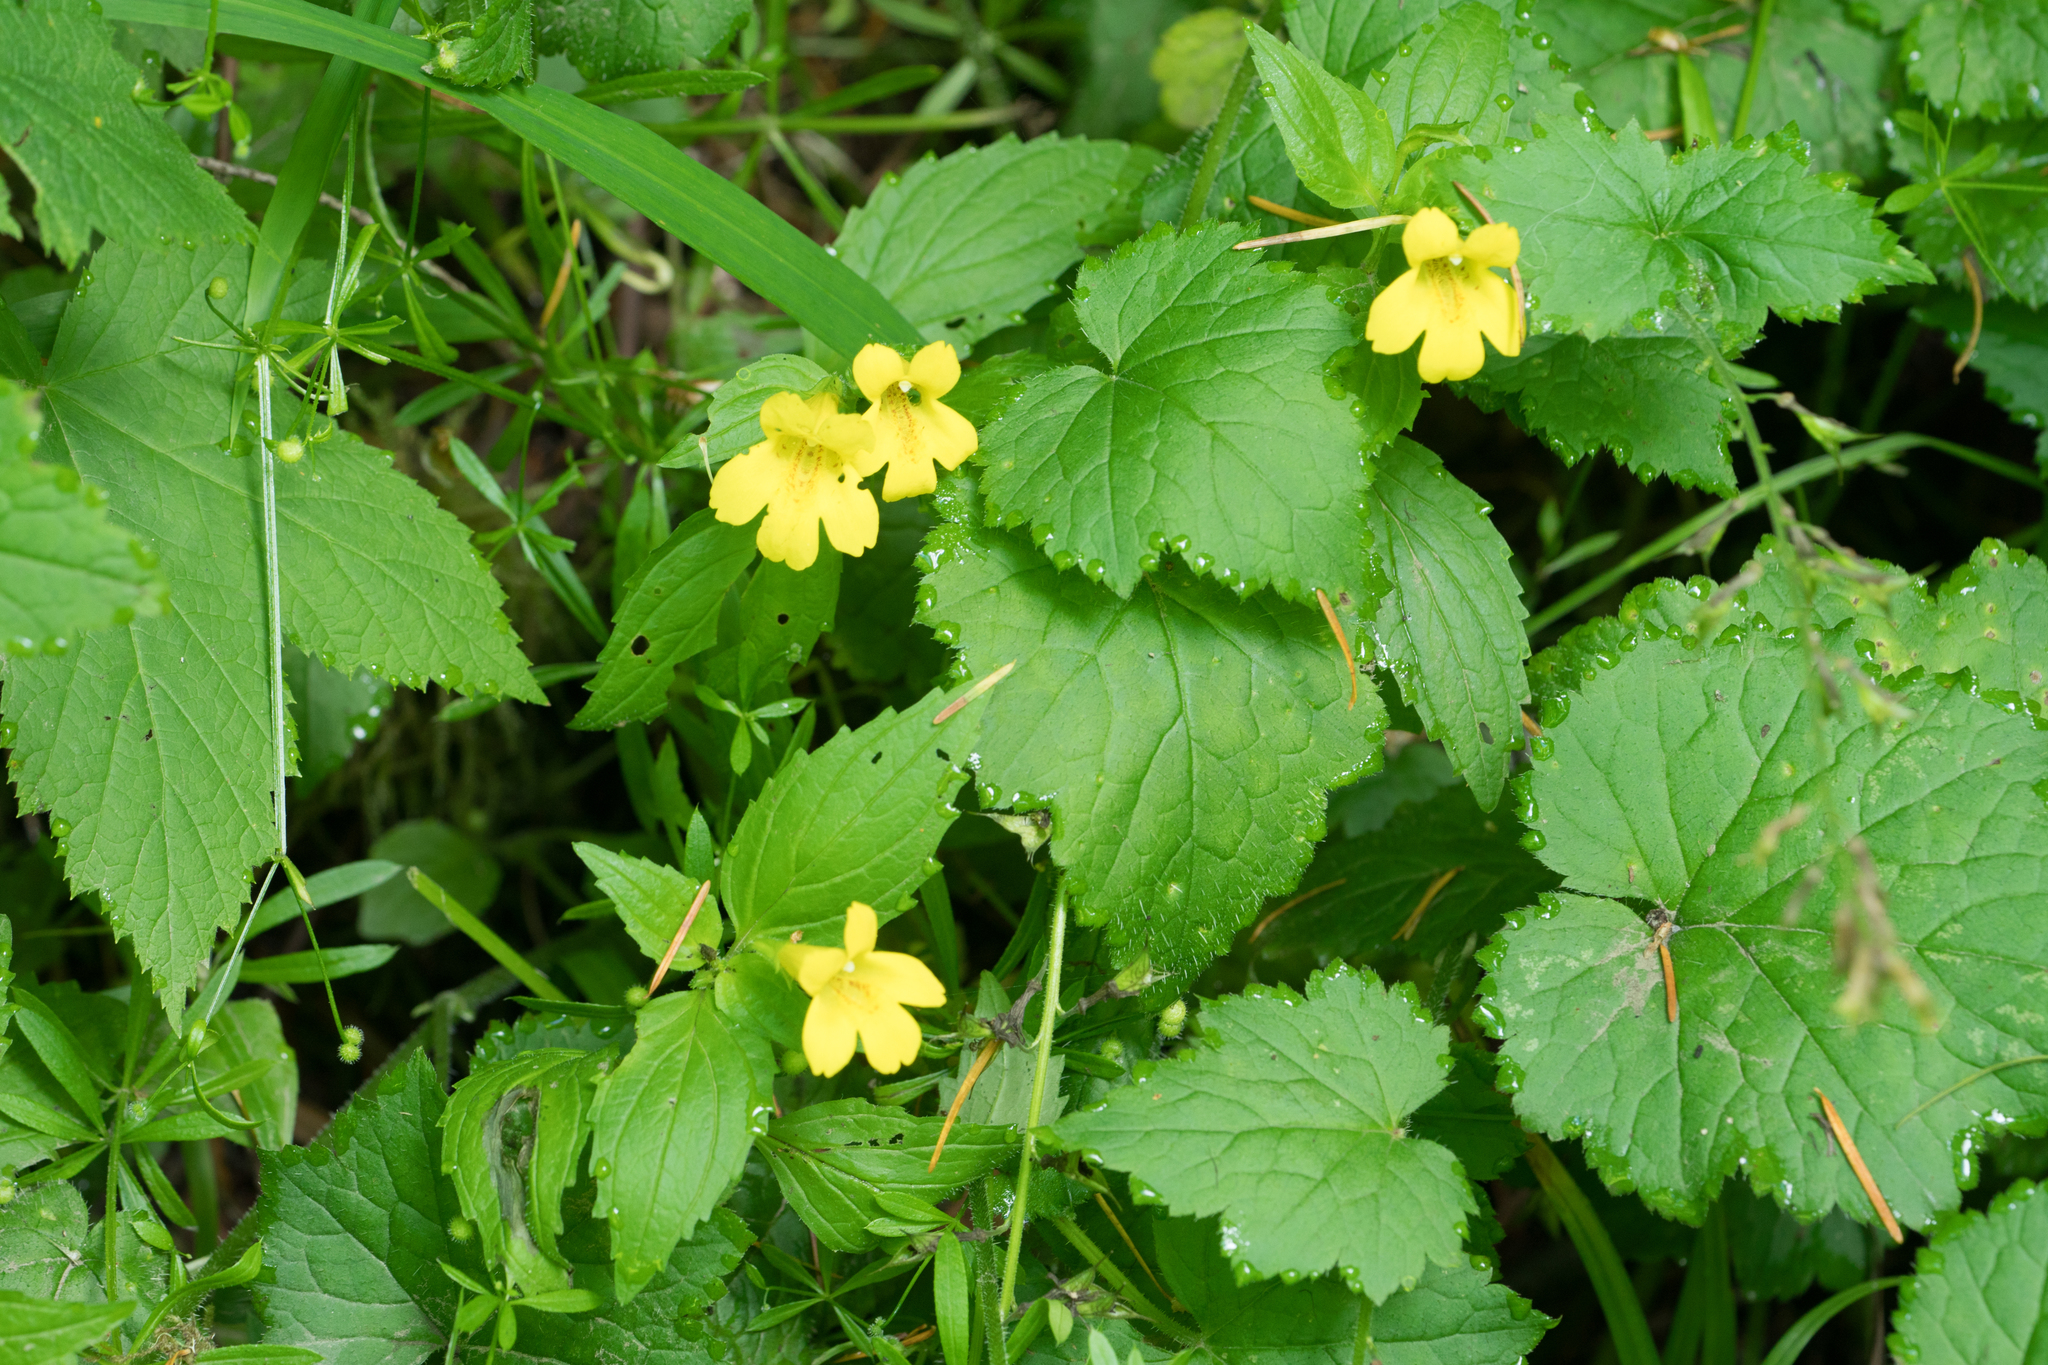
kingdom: Plantae
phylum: Tracheophyta
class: Magnoliopsida
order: Lamiales
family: Phrymaceae
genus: Erythranthe
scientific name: Erythranthe dentata
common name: Coastal monkeyflower
